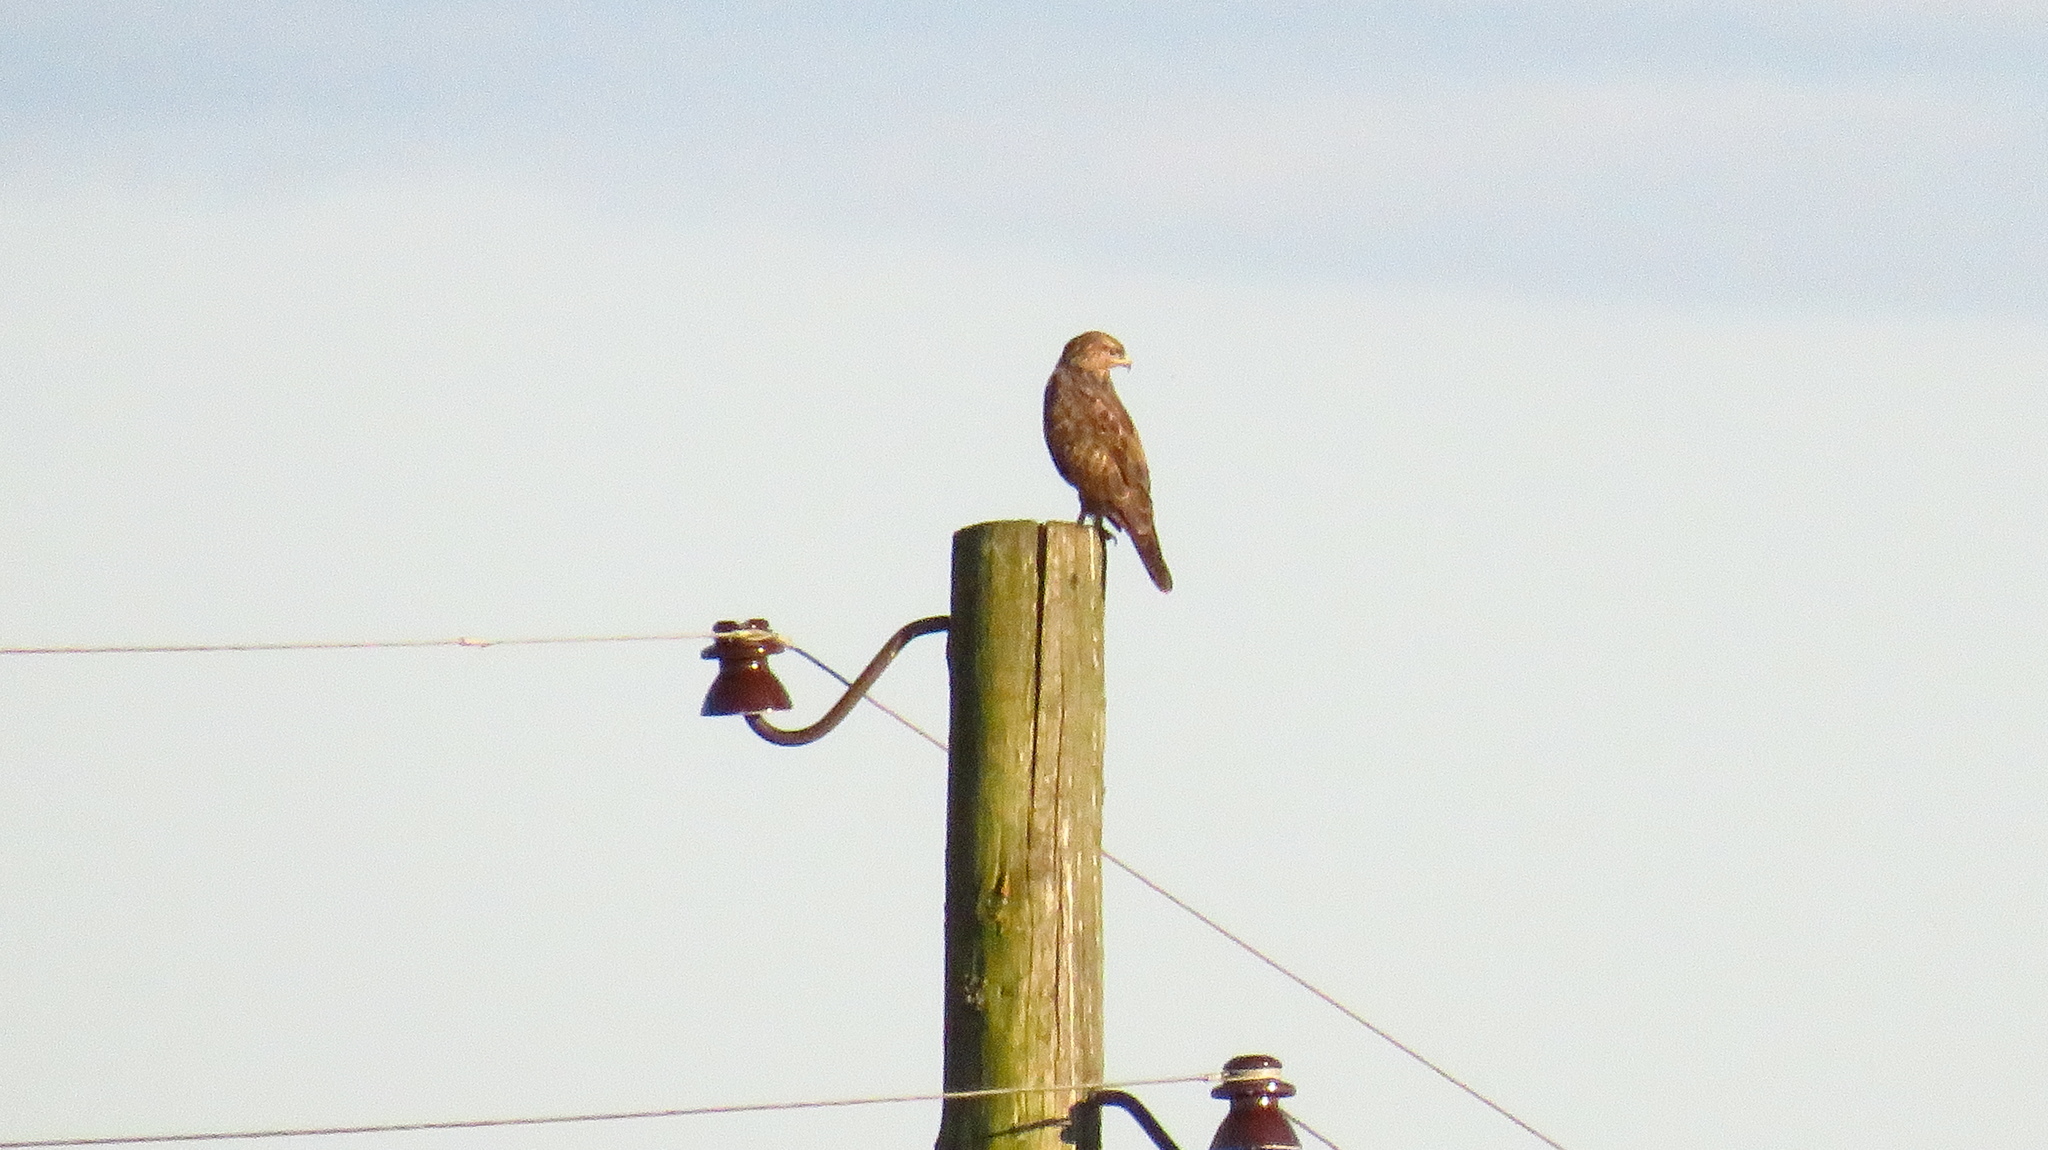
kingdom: Animalia
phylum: Chordata
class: Aves
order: Accipitriformes
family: Accipitridae
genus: Buteo
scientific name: Buteo buteo
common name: Common buzzard
